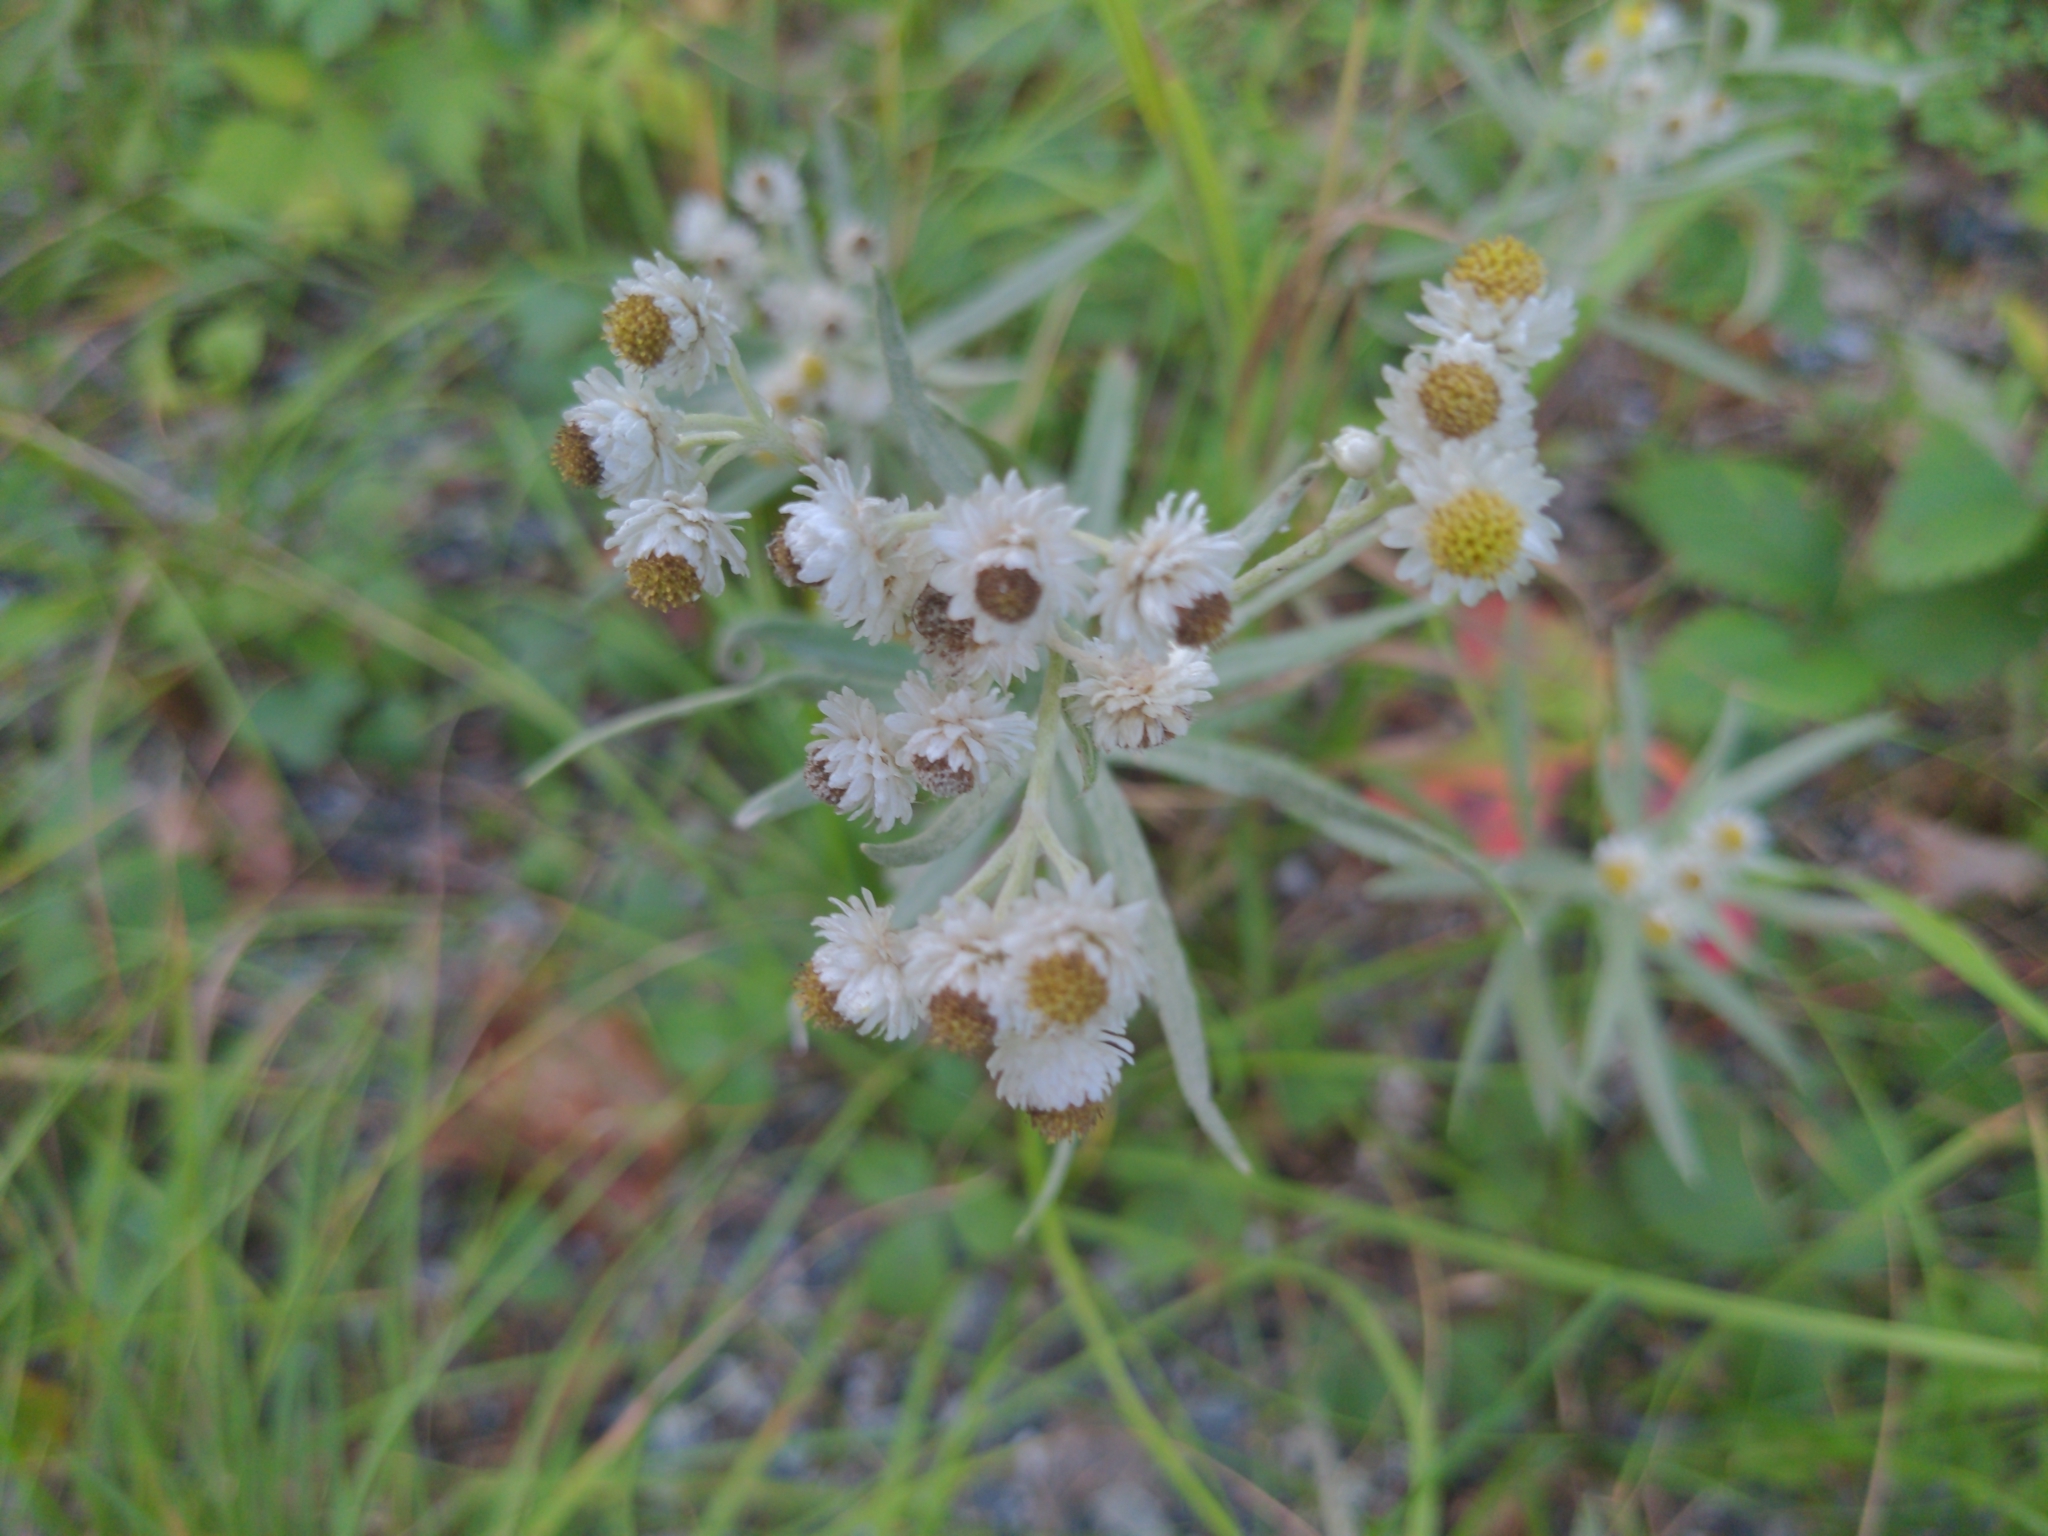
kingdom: Plantae
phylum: Tracheophyta
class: Magnoliopsida
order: Asterales
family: Asteraceae
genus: Anaphalis
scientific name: Anaphalis margaritacea
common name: Pearly everlasting
